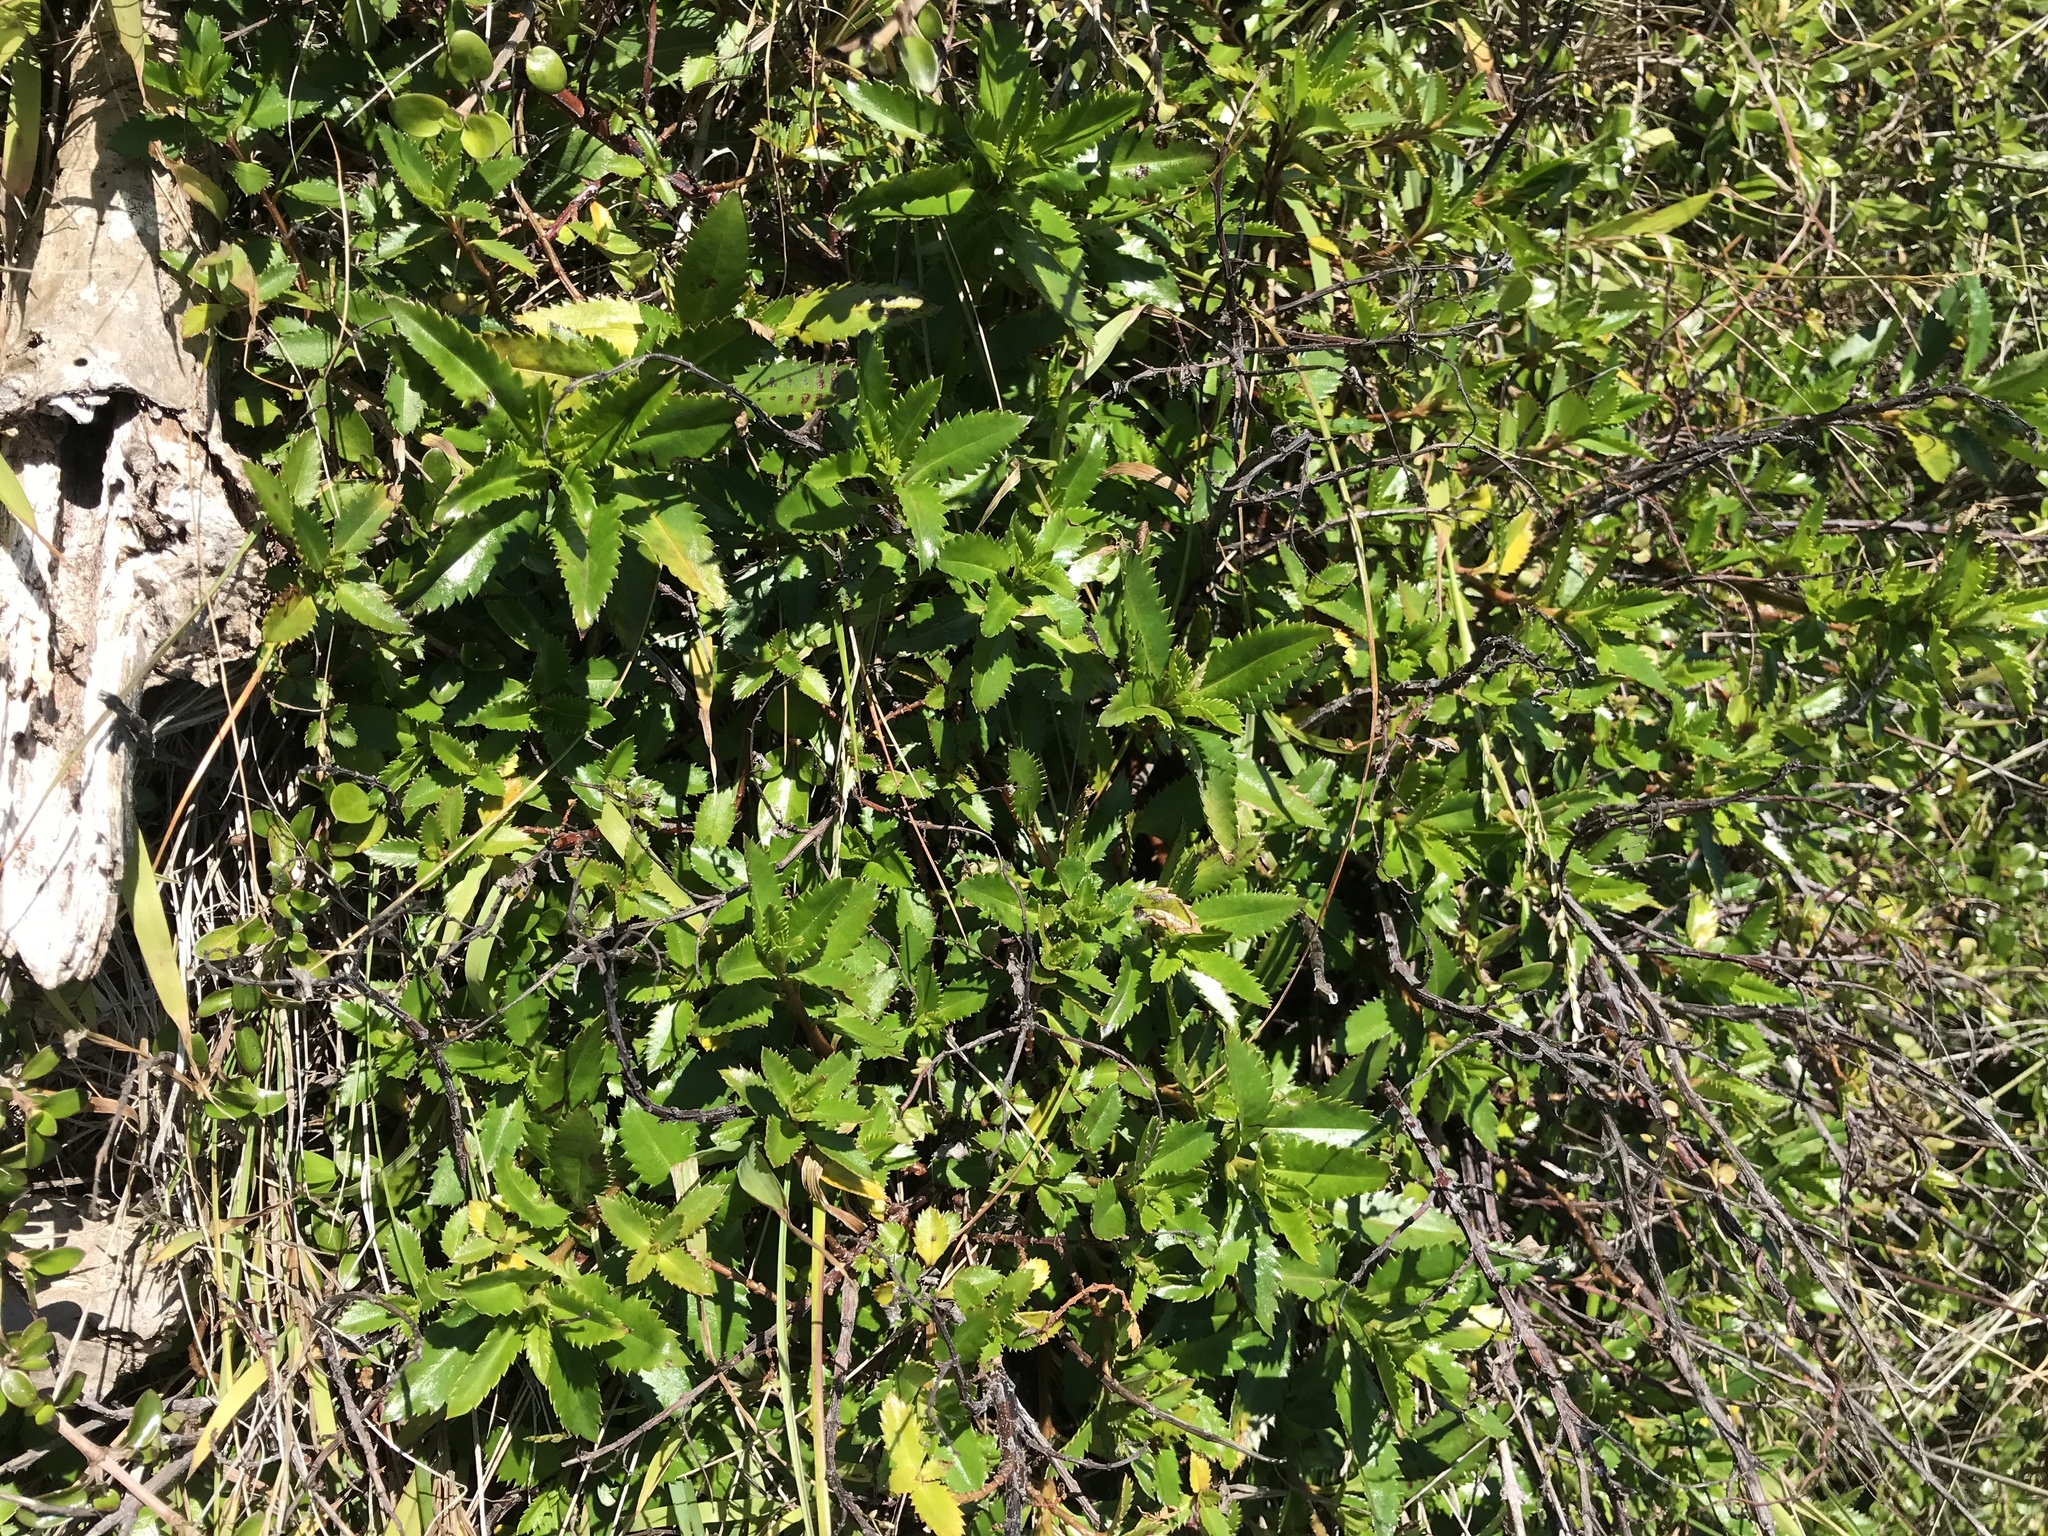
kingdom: Plantae
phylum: Tracheophyta
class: Magnoliopsida
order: Saxifragales
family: Haloragaceae
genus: Haloragis
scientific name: Haloragis erecta
